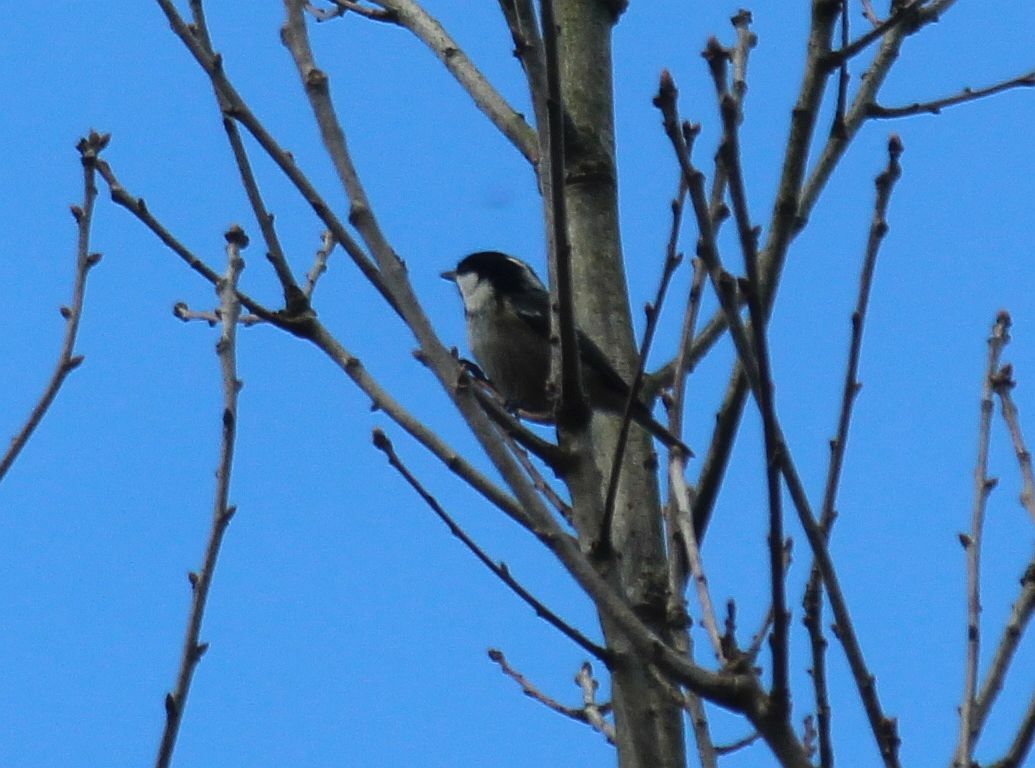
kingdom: Animalia
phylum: Chordata
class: Aves
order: Passeriformes
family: Paridae
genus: Periparus
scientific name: Periparus ater
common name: Coal tit
